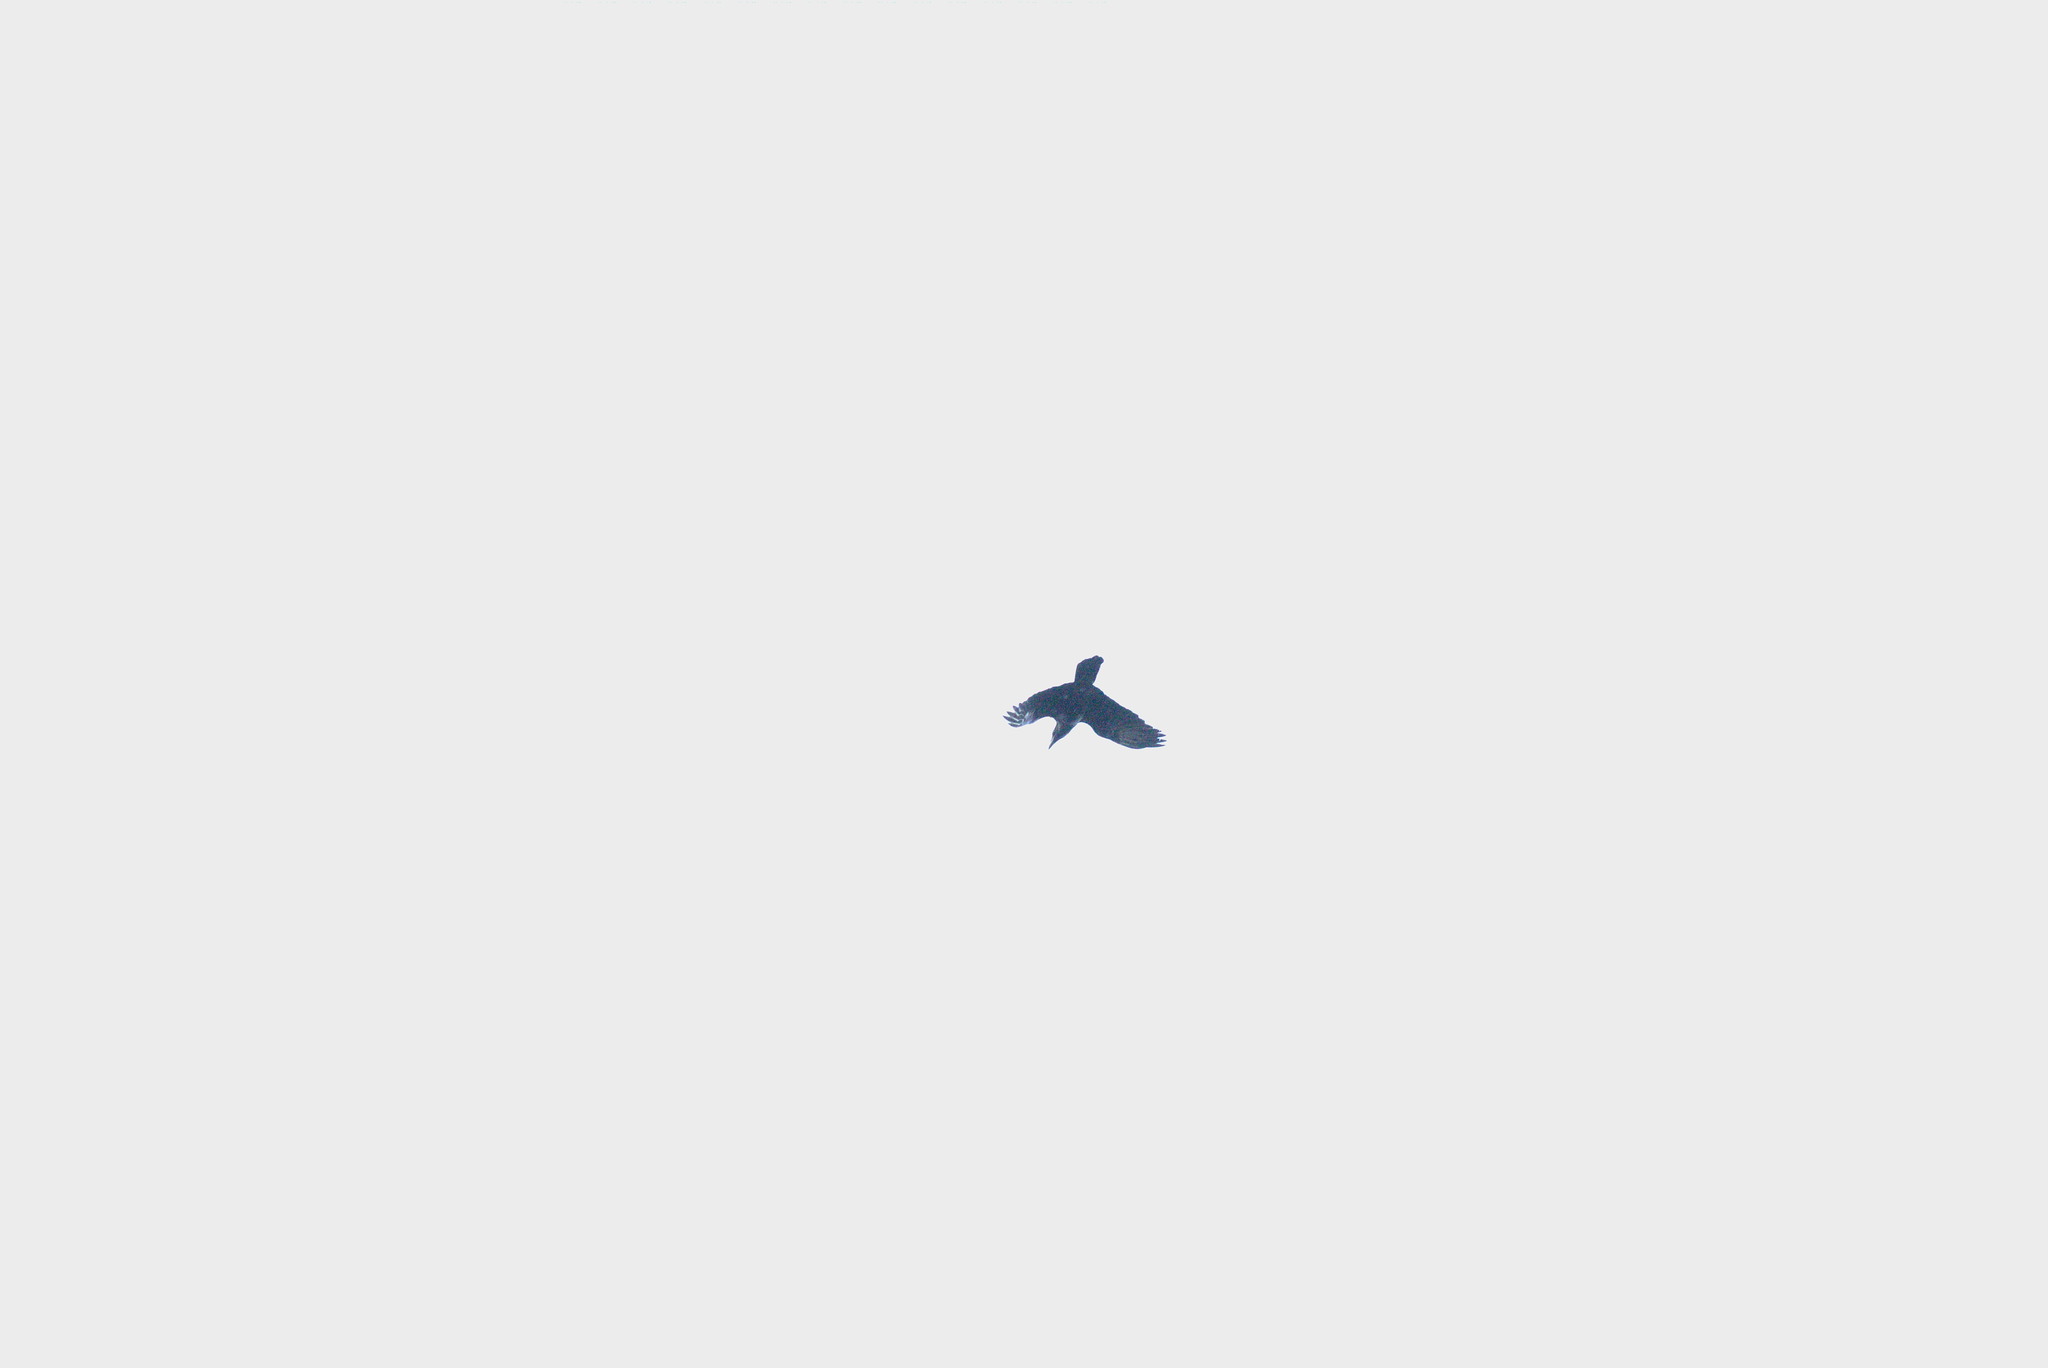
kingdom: Animalia
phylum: Chordata
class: Aves
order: Passeriformes
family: Corvidae
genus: Corvus
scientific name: Corvus corax
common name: Common raven
